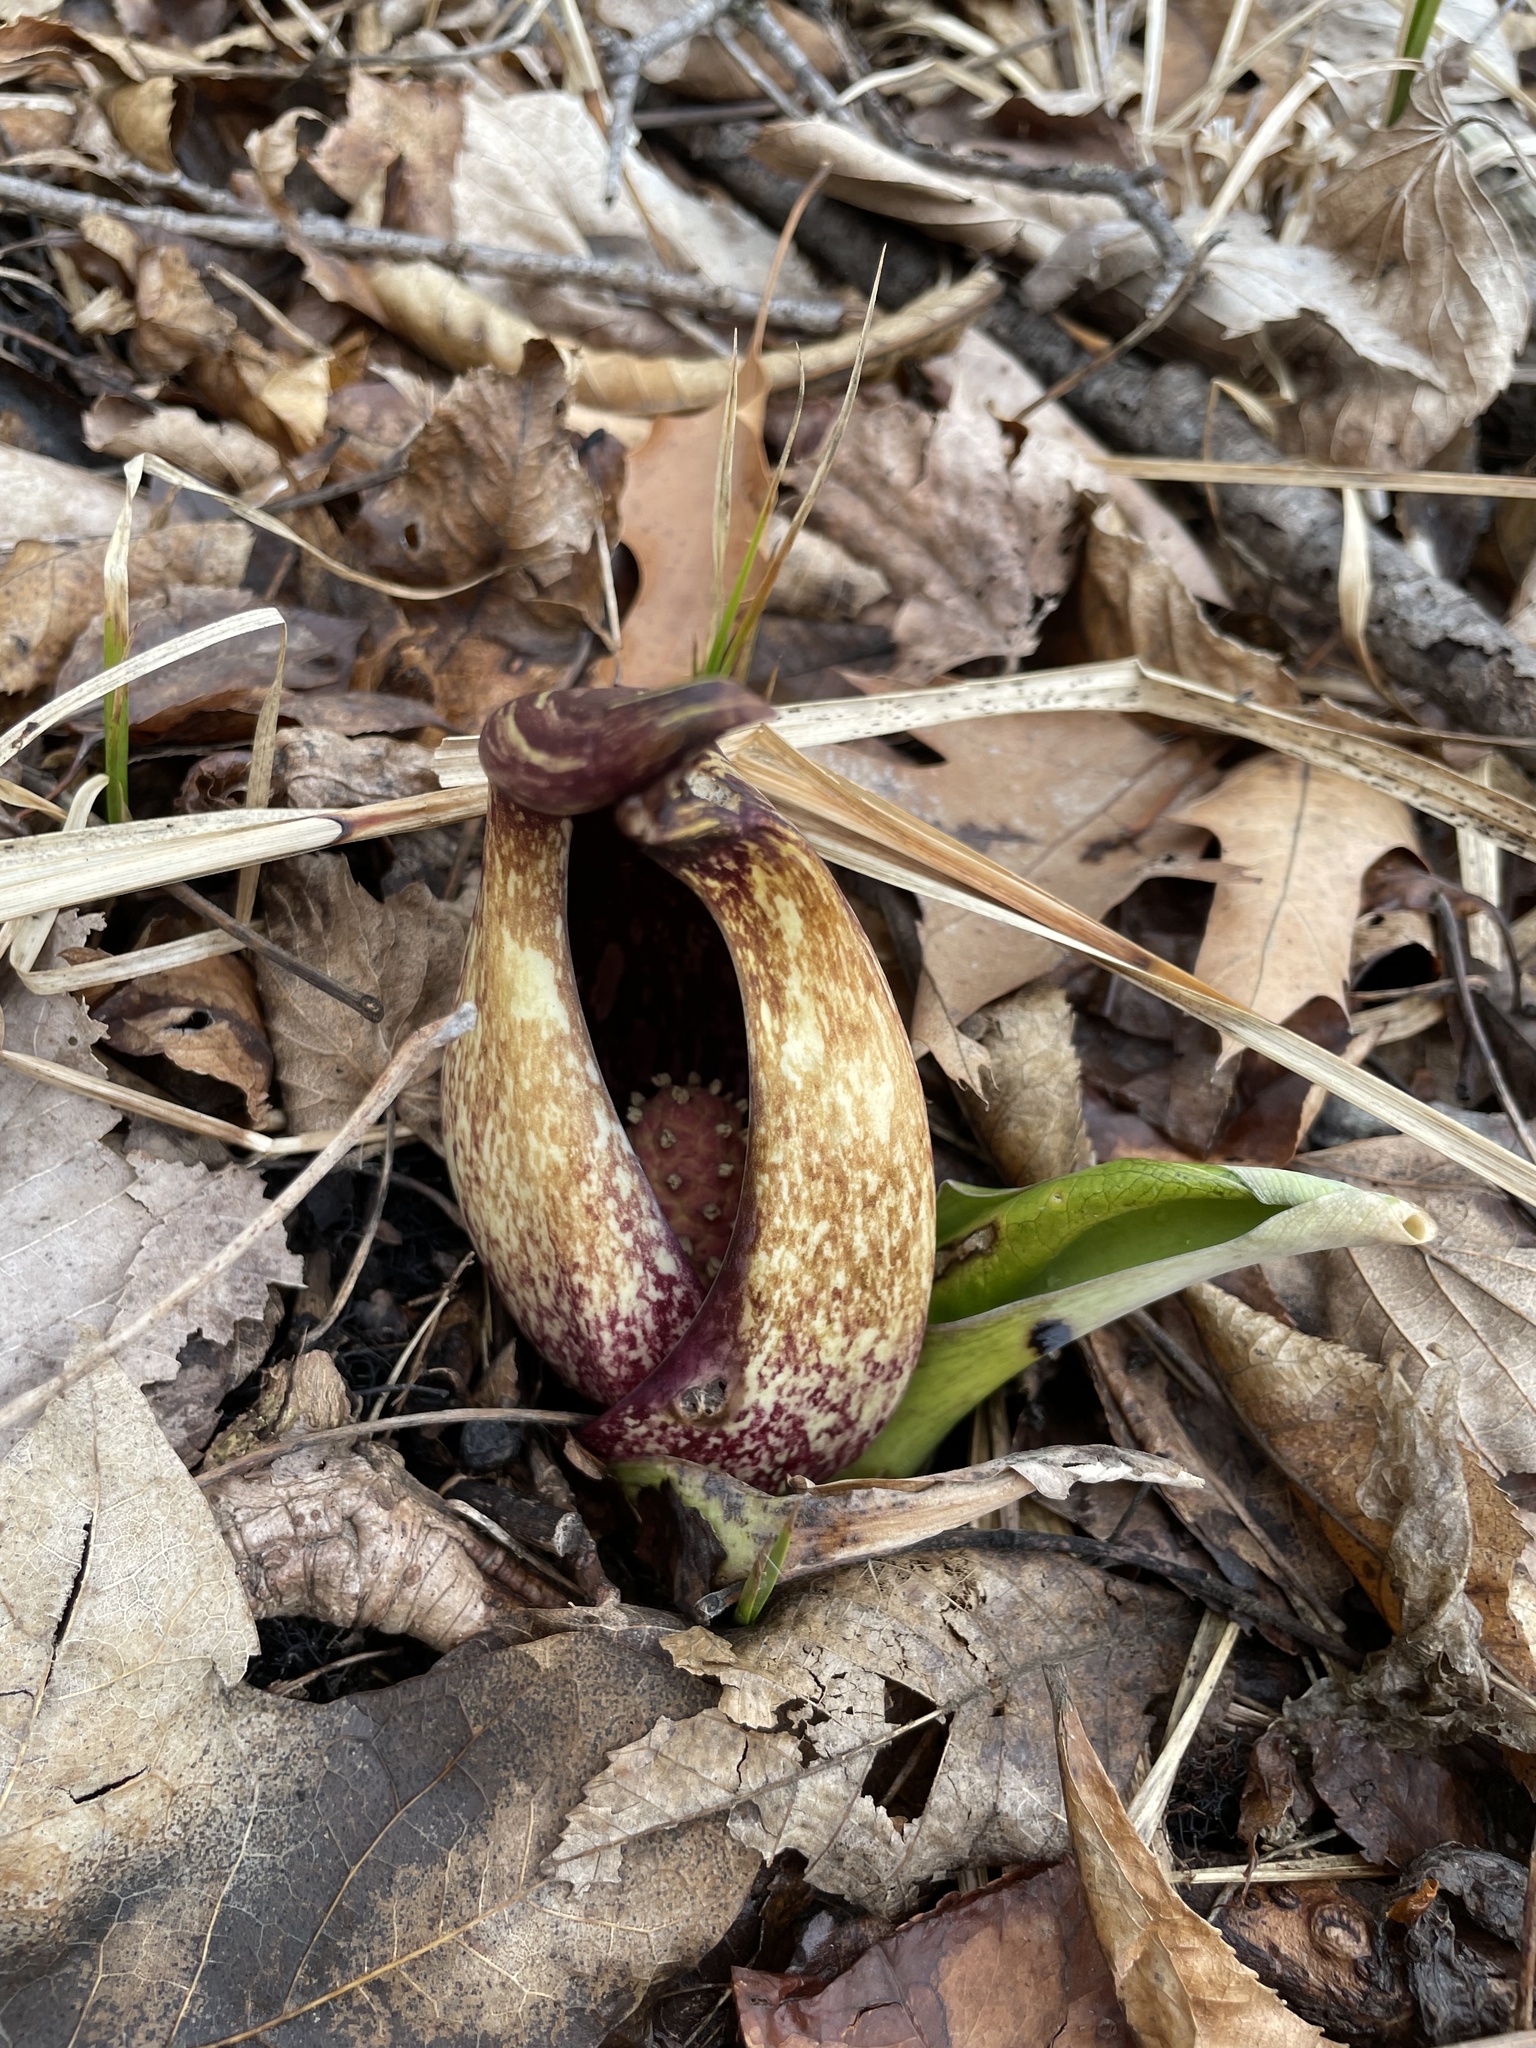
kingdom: Plantae
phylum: Tracheophyta
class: Liliopsida
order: Alismatales
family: Araceae
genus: Symplocarpus
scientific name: Symplocarpus foetidus
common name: Eastern skunk cabbage
